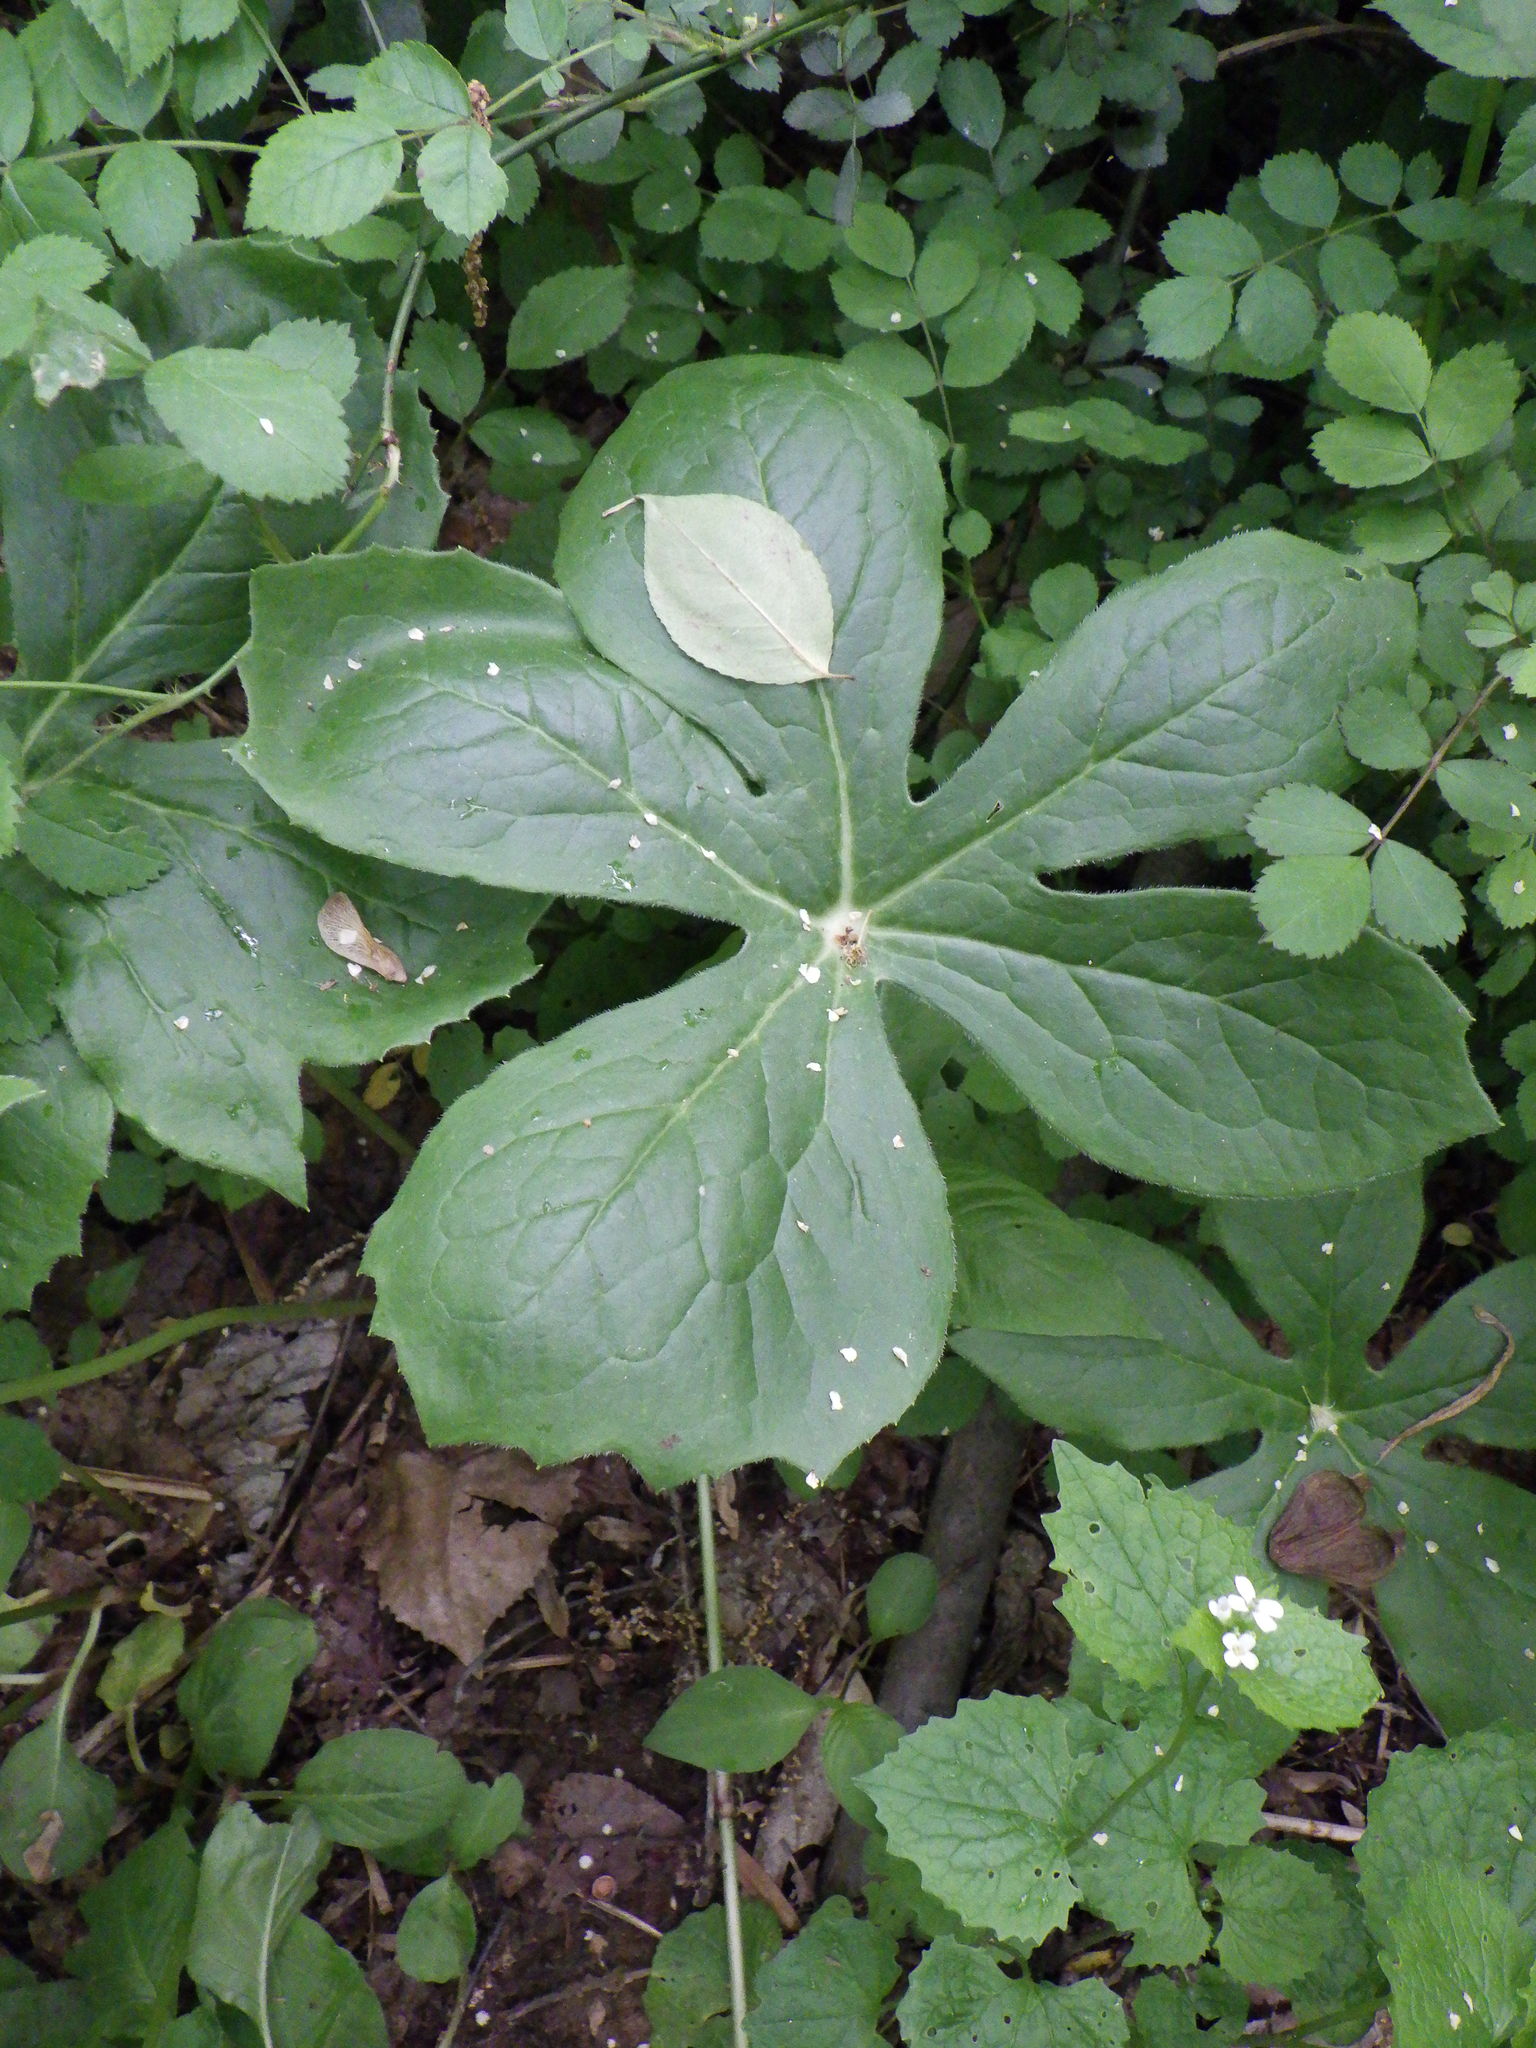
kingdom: Plantae
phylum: Tracheophyta
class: Magnoliopsida
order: Ranunculales
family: Berberidaceae
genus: Podophyllum
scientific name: Podophyllum peltatum
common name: Wild mandrake
